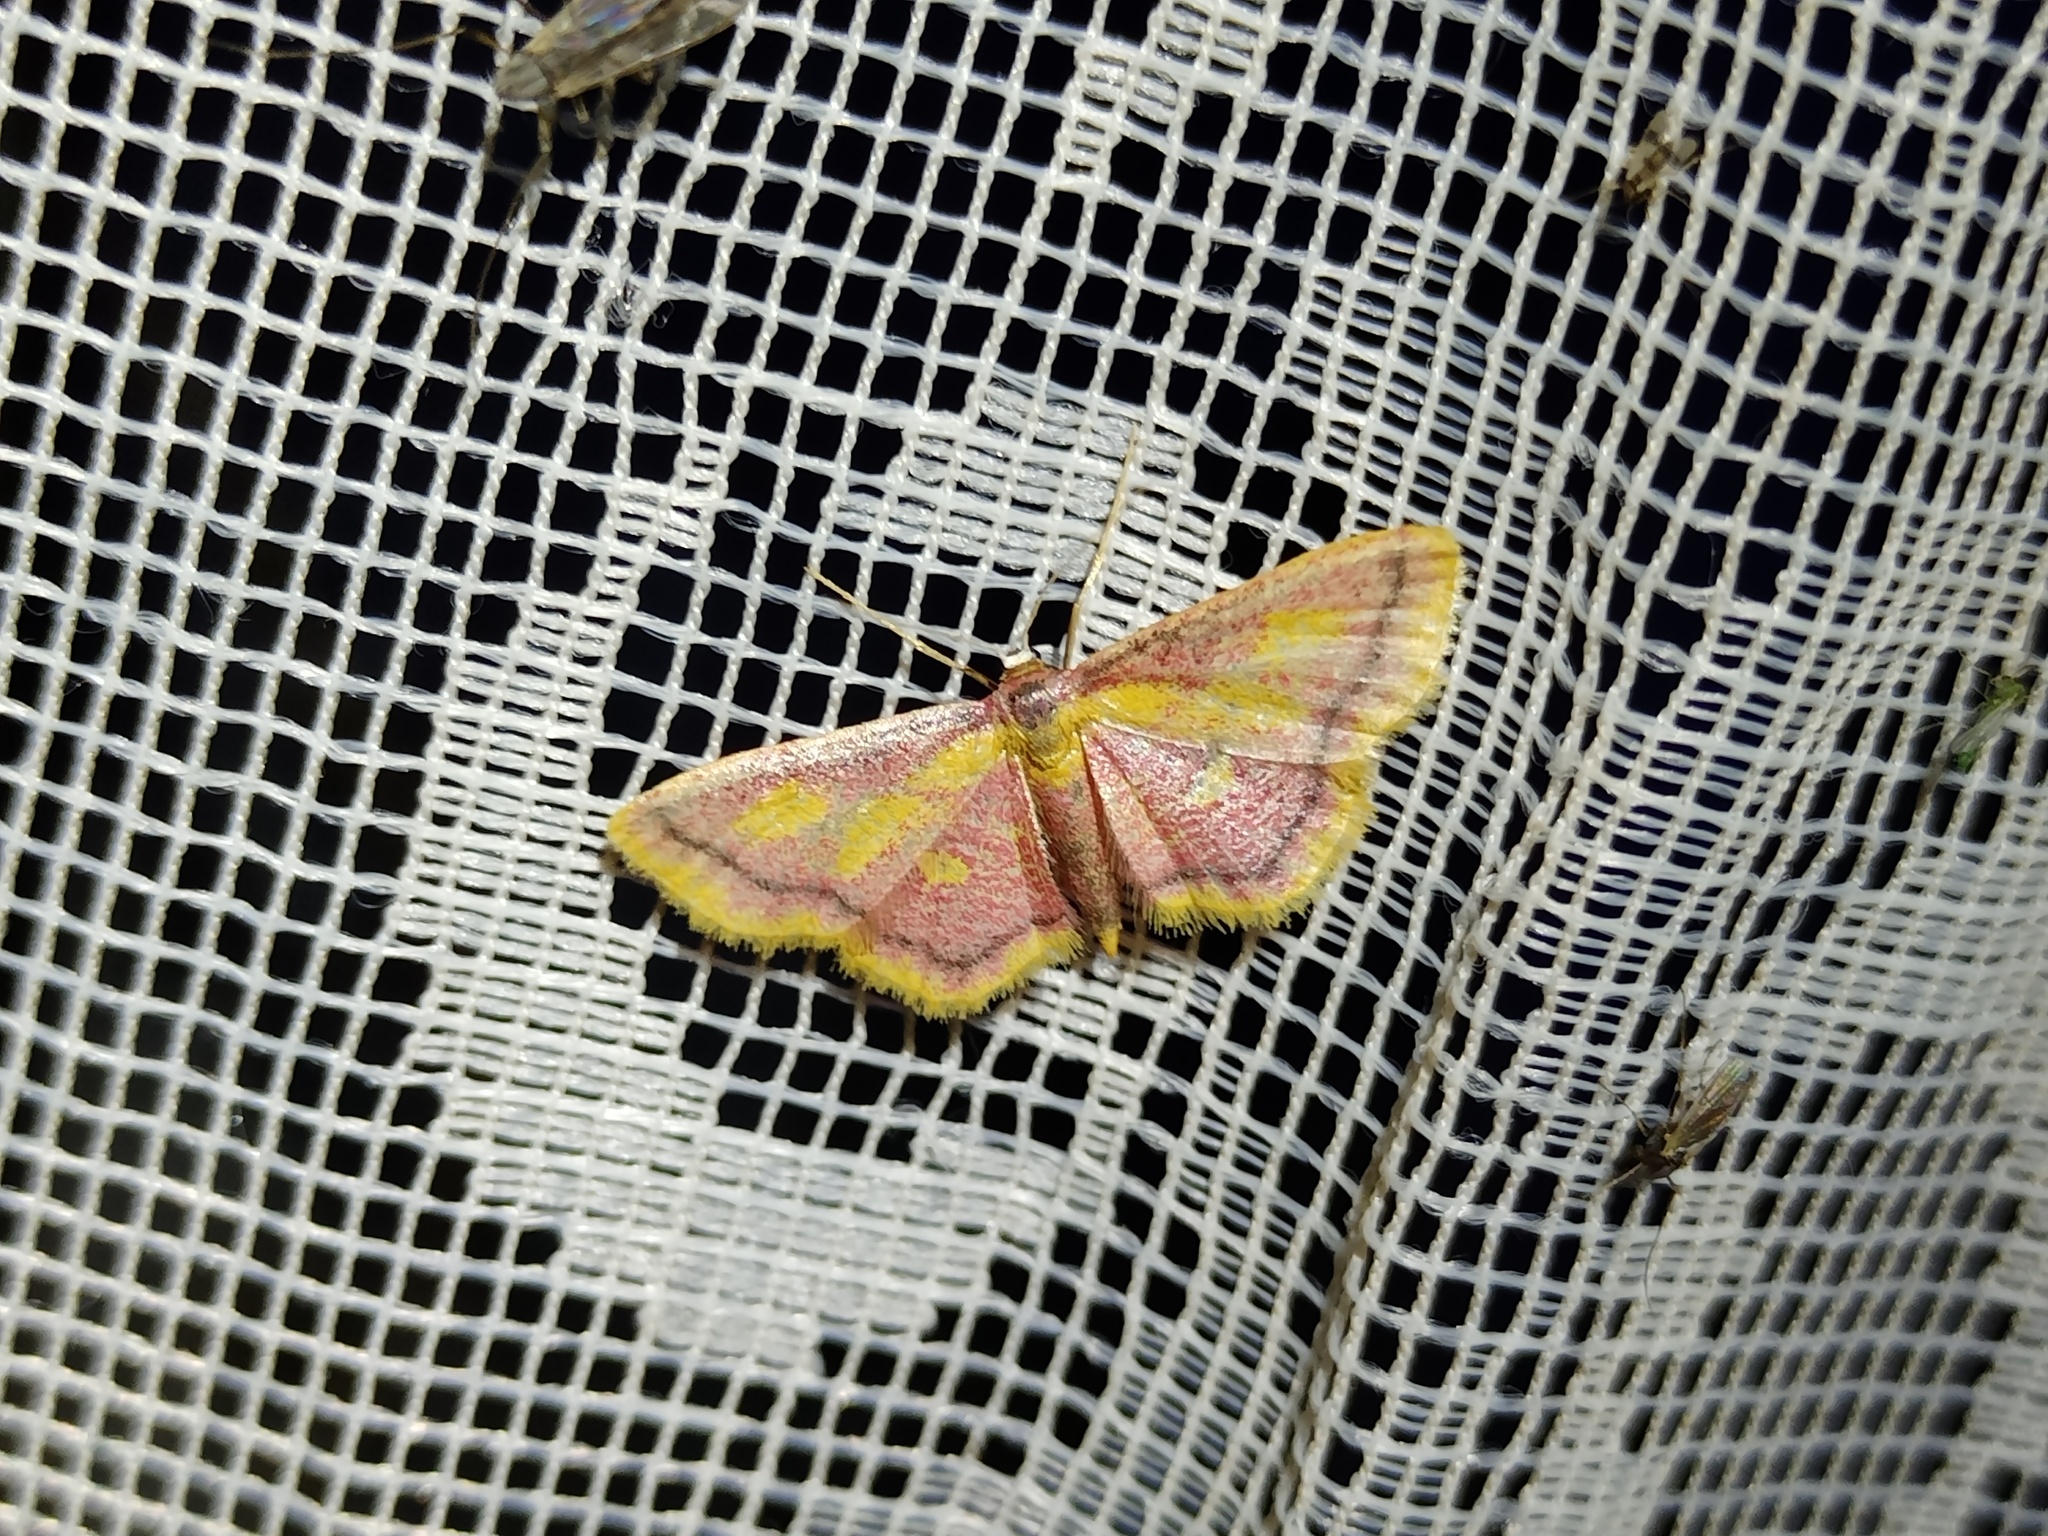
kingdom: Animalia
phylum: Arthropoda
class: Insecta
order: Lepidoptera
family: Geometridae
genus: Idaea
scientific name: Idaea muricata
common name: Purple-bordered gold
